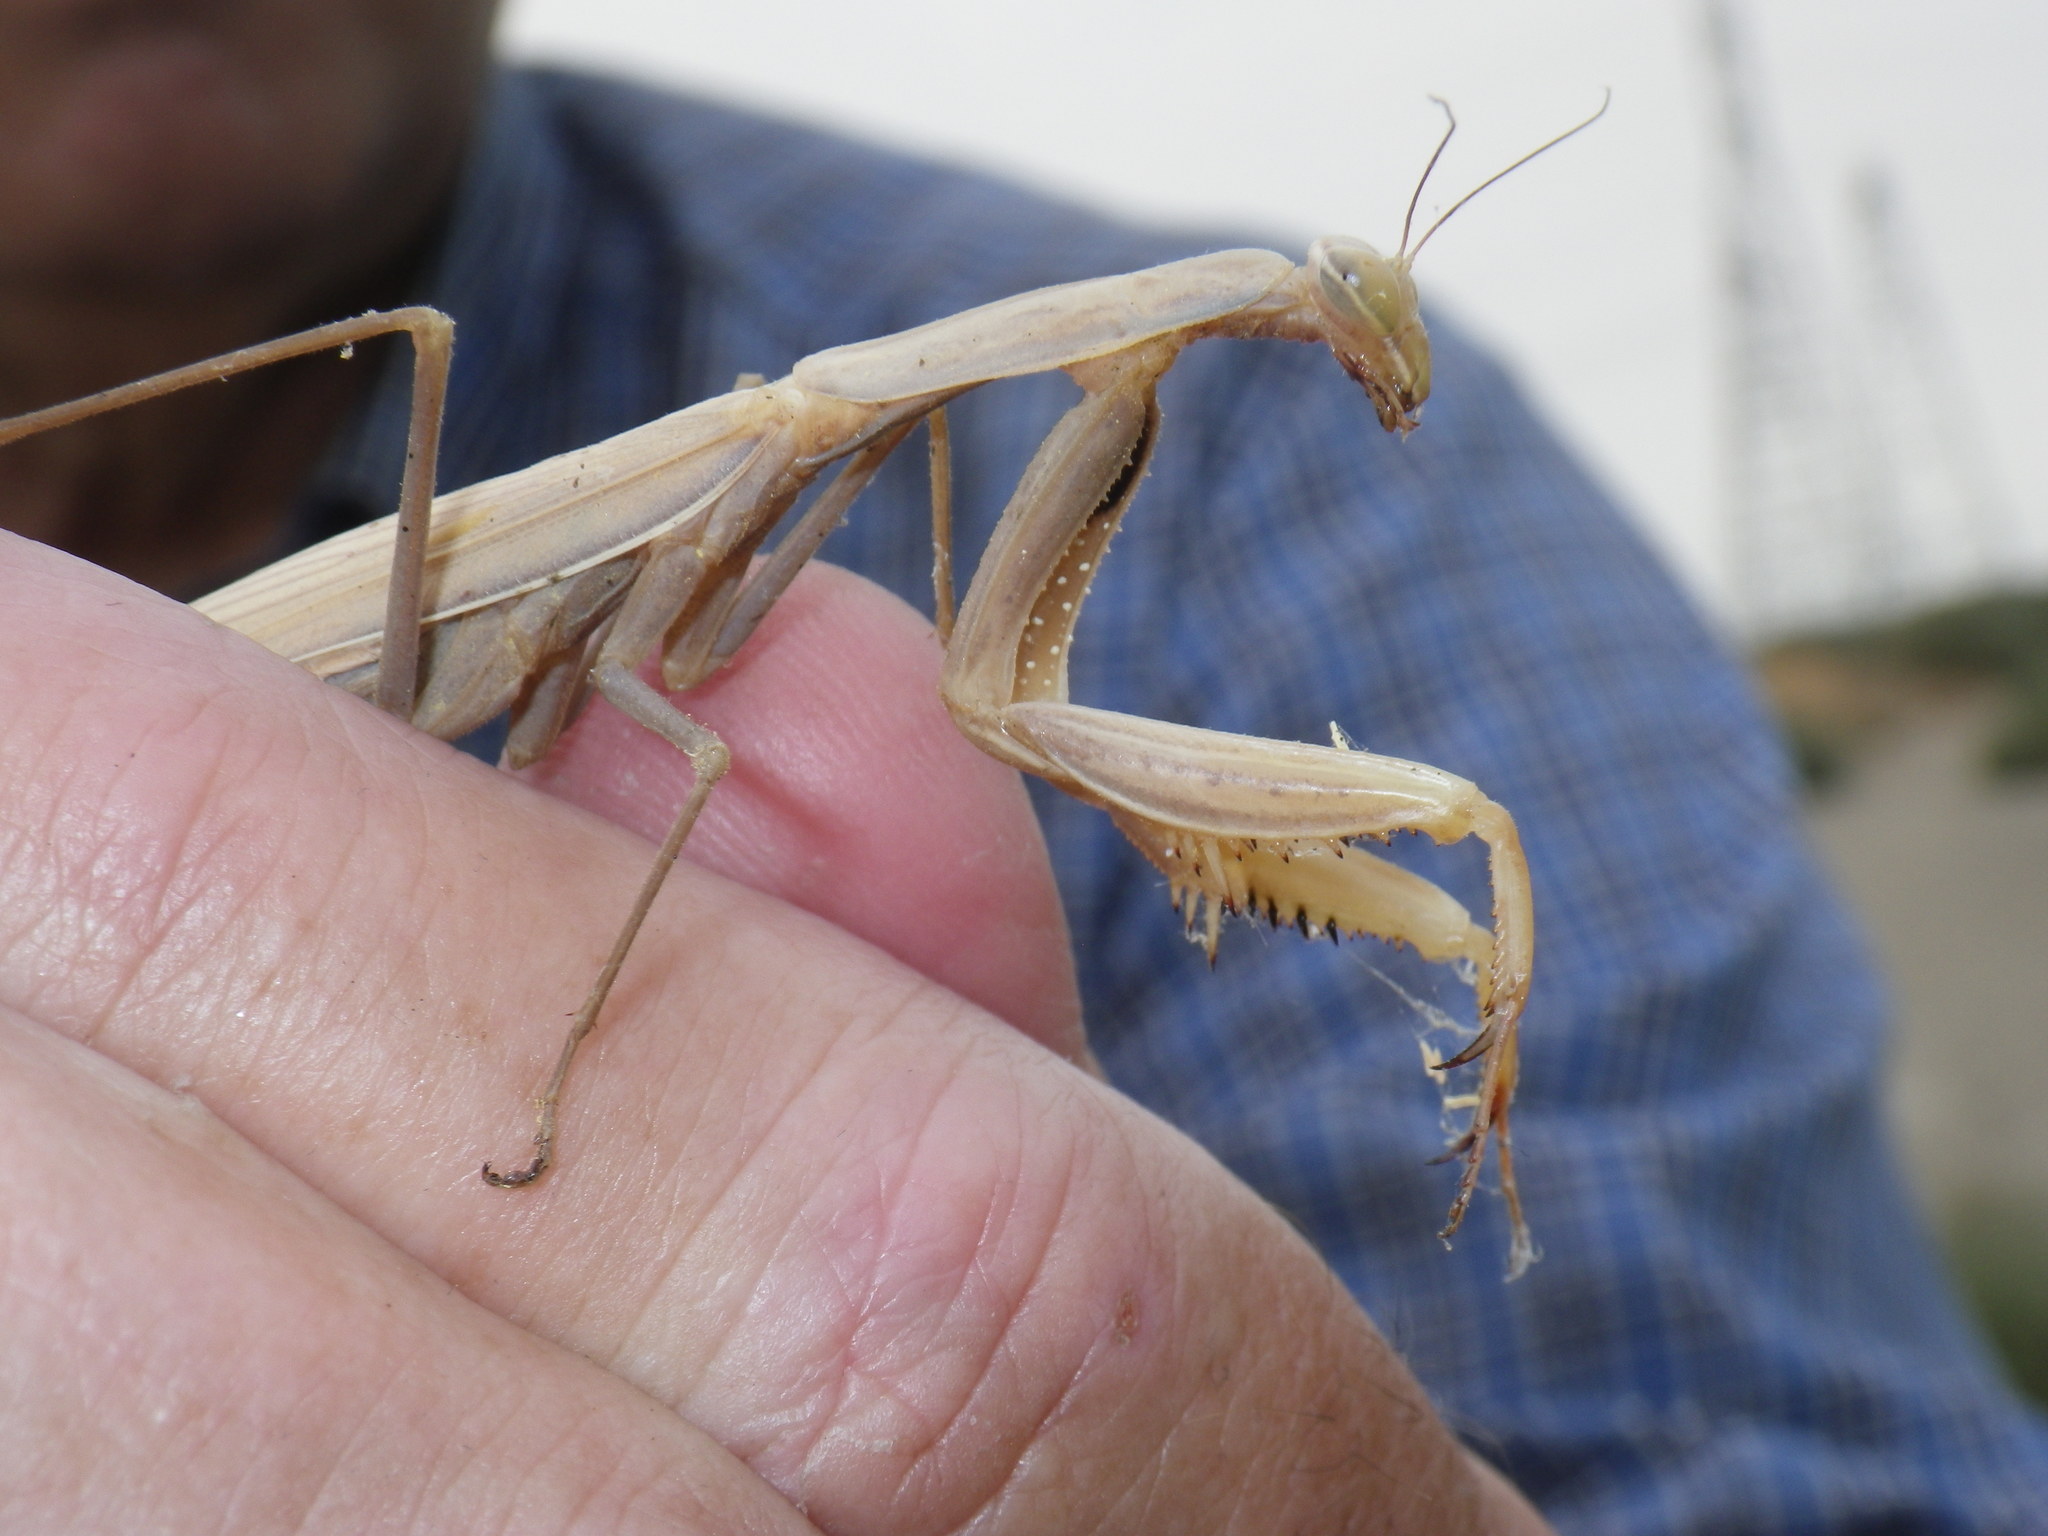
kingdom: Animalia
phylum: Arthropoda
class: Insecta
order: Mantodea
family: Mantidae
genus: Mantis
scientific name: Mantis religiosa
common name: Praying mantis
